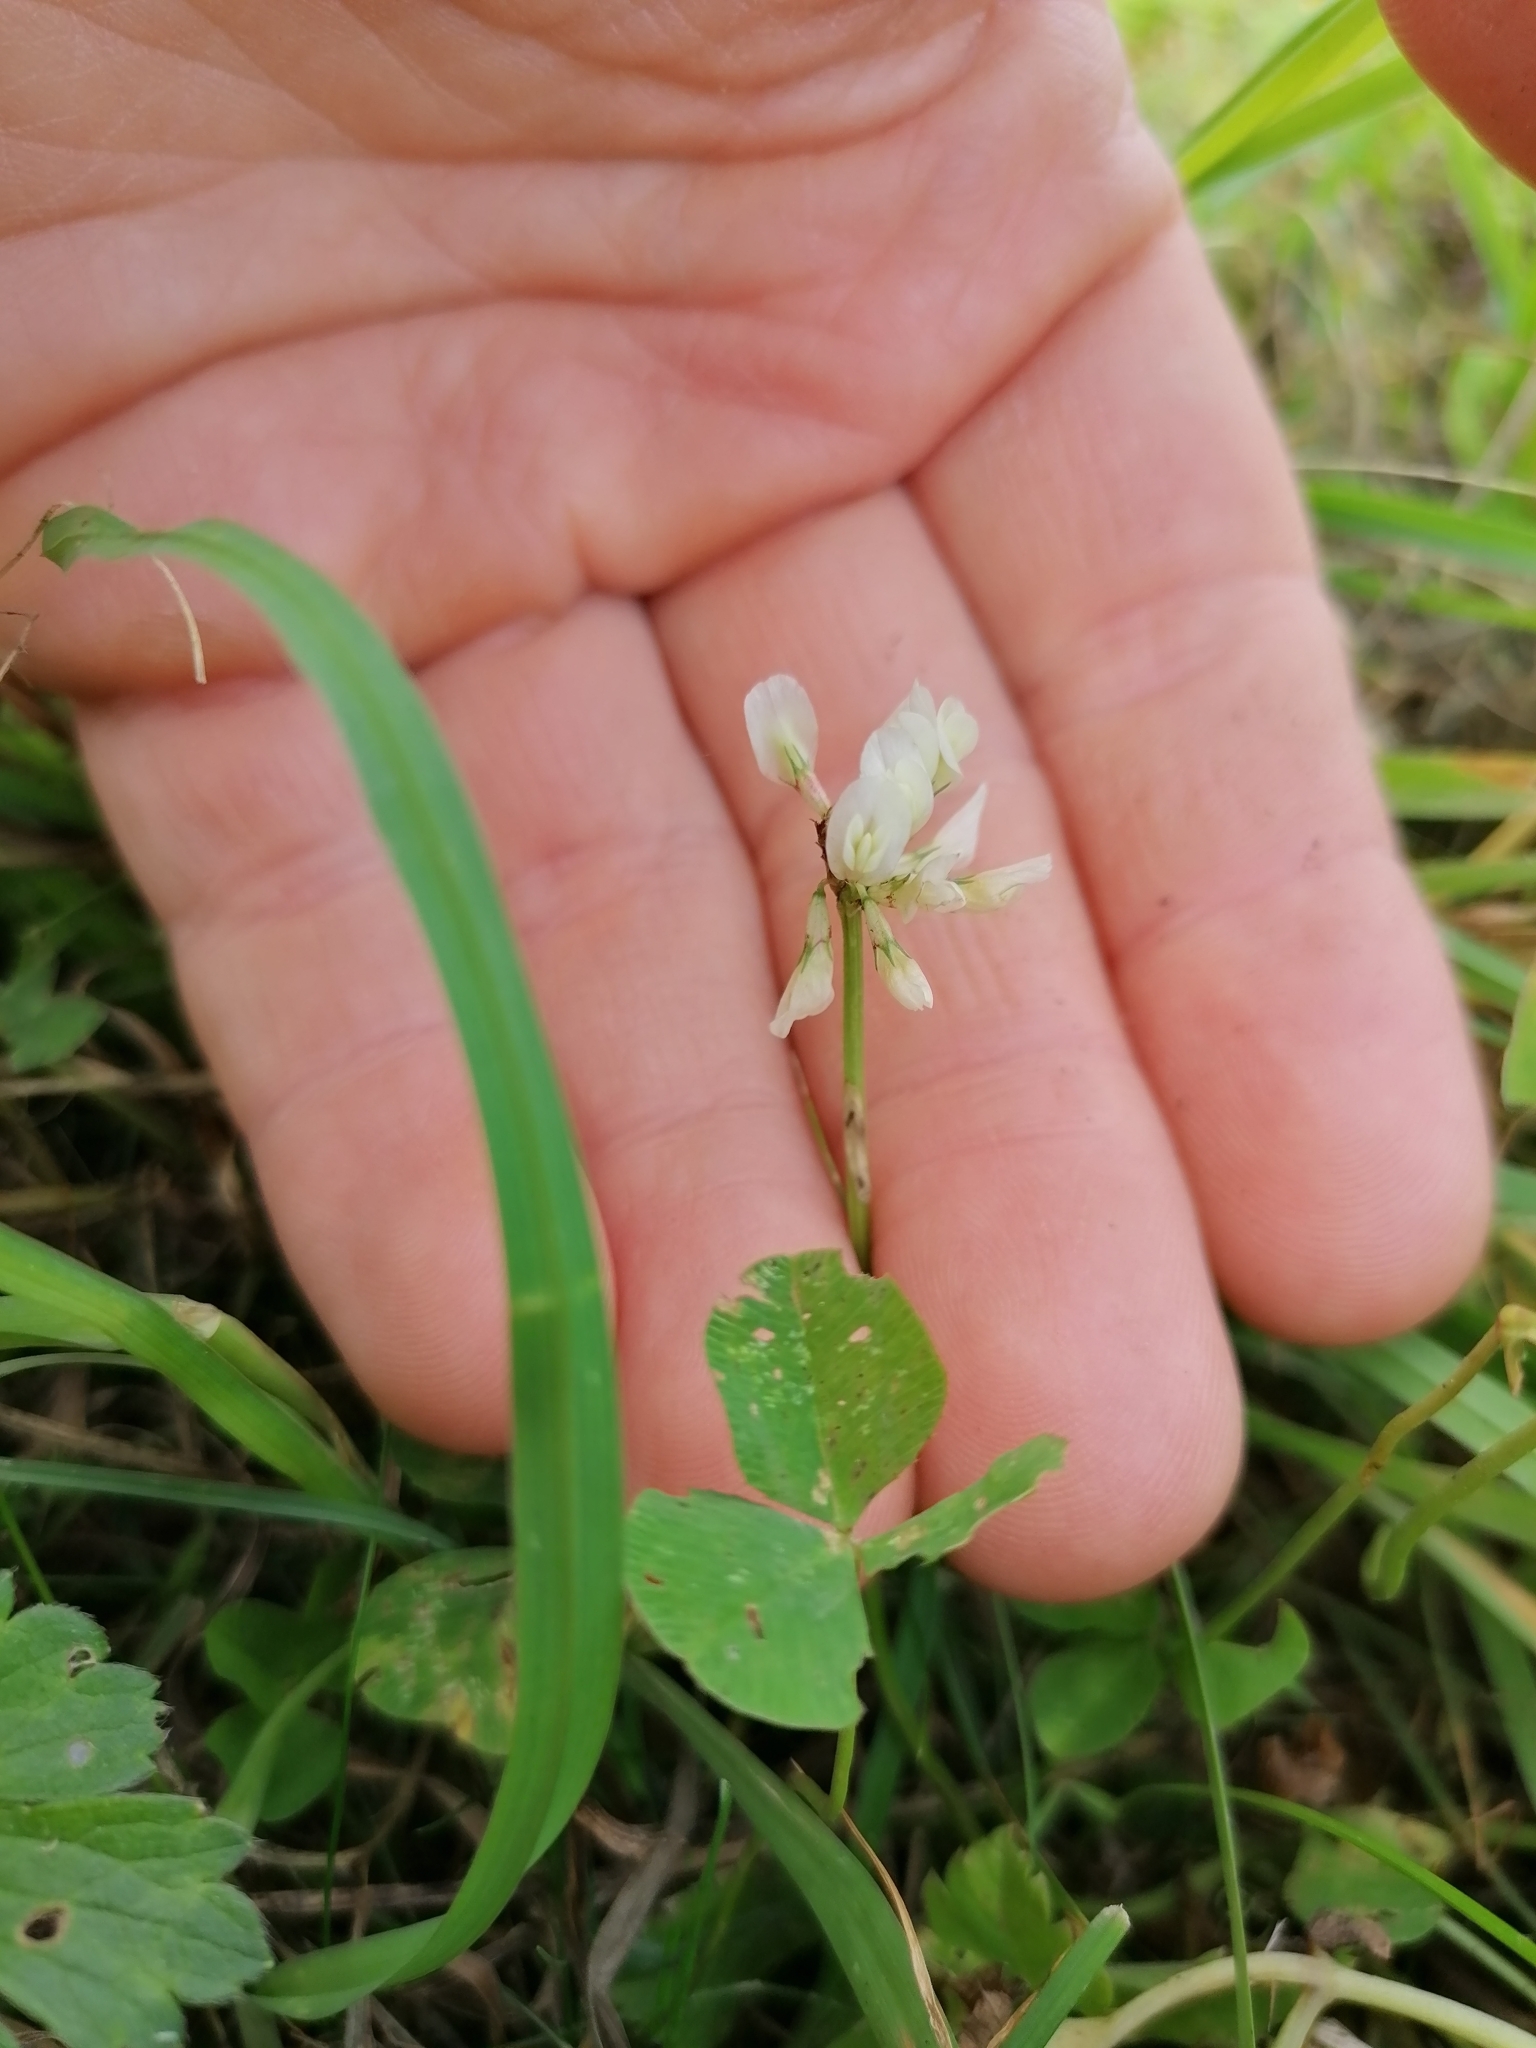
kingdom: Plantae
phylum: Tracheophyta
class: Magnoliopsida
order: Fabales
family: Fabaceae
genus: Trifolium
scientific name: Trifolium repens
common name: White clover
